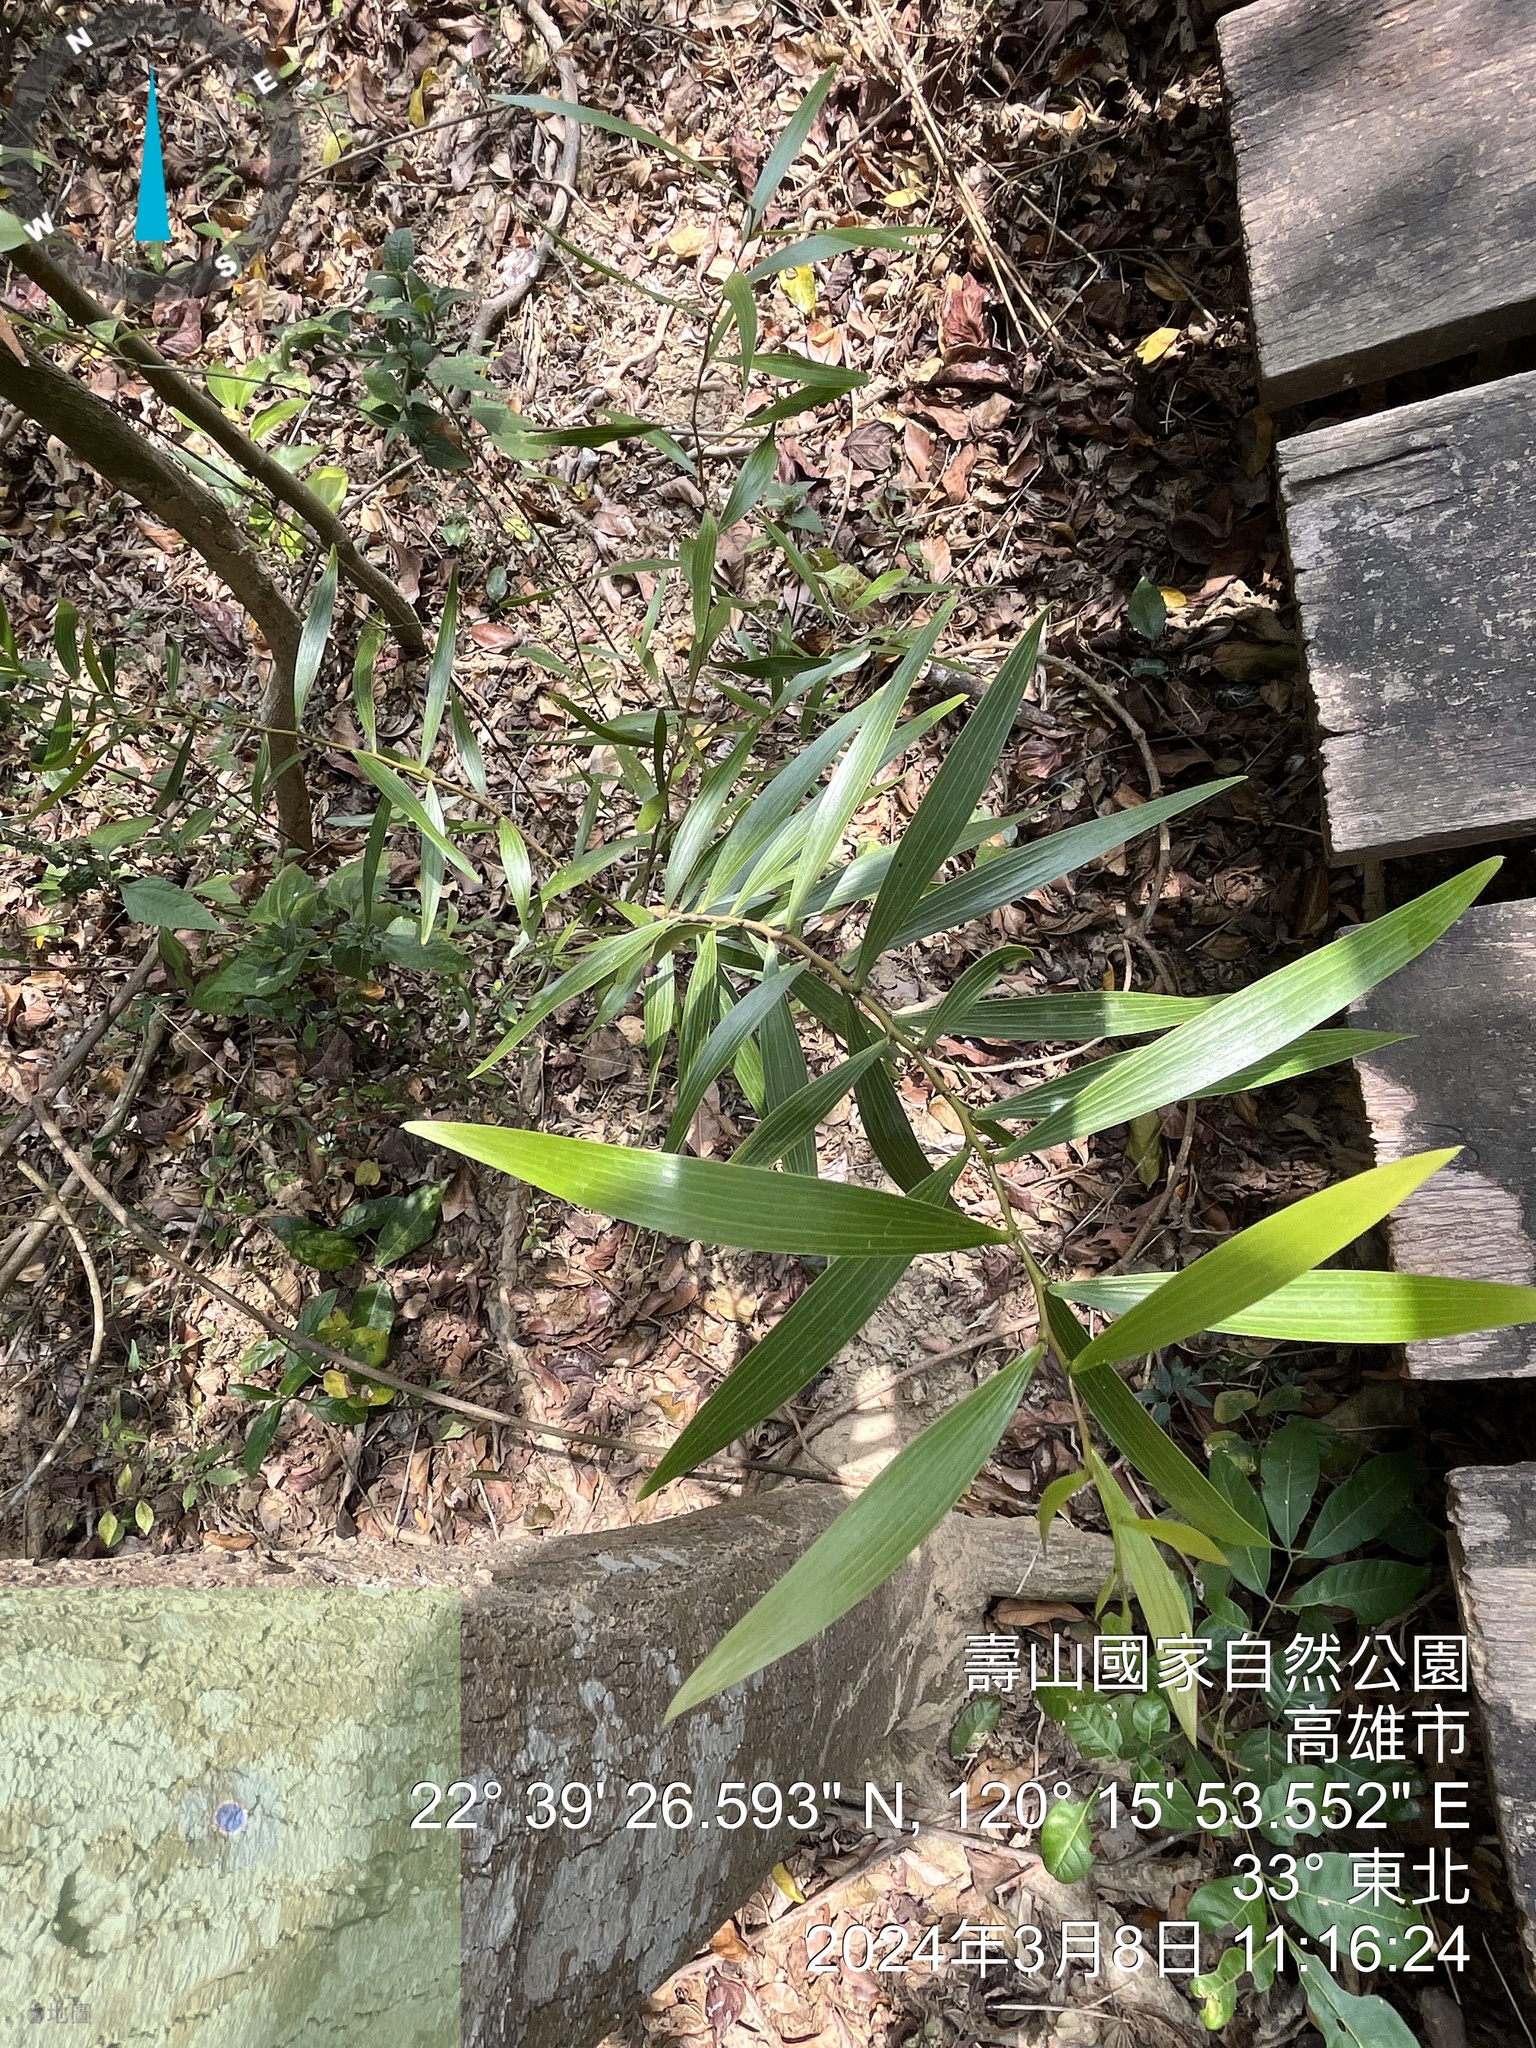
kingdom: Plantae
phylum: Tracheophyta
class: Magnoliopsida
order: Fabales
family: Fabaceae
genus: Acacia
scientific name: Acacia confusa
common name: Formosan koa
